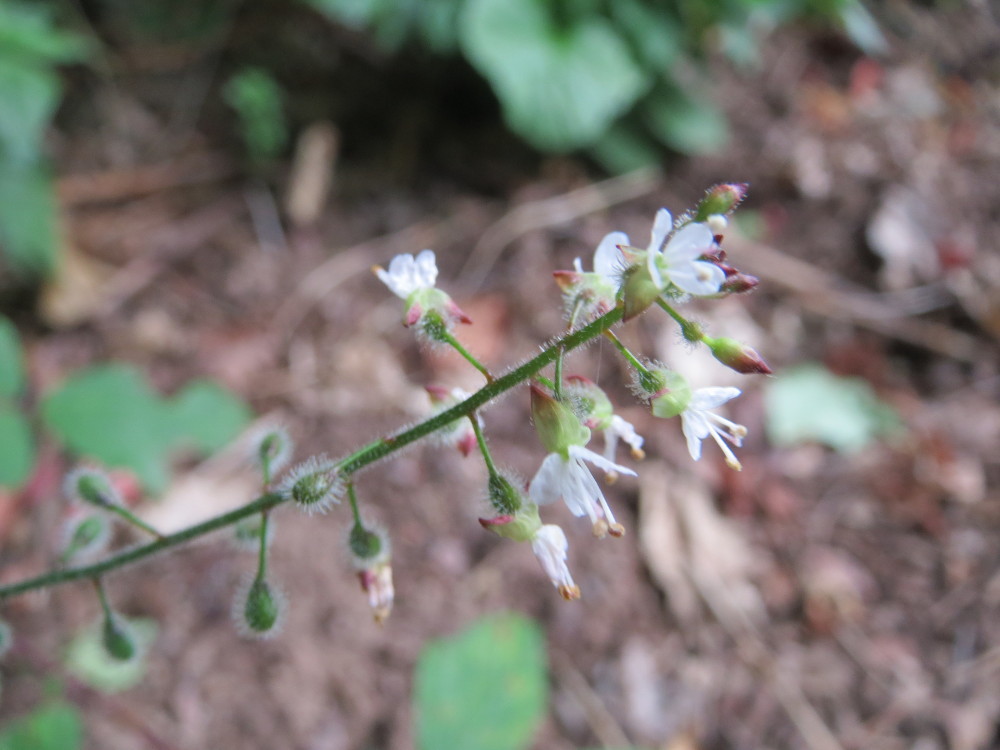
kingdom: Plantae
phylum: Tracheophyta
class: Magnoliopsida
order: Myrtales
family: Onagraceae
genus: Circaea
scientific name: Circaea lutetiana
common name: Enchanter's-nightshade
